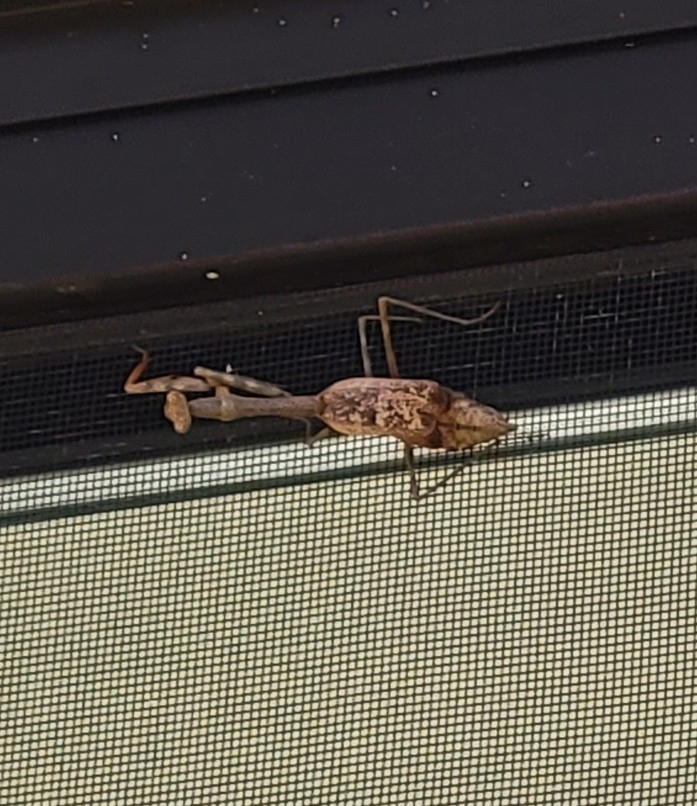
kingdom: Animalia
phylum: Arthropoda
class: Insecta
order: Mantodea
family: Mantidae
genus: Stagmomantis
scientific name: Stagmomantis carolina
